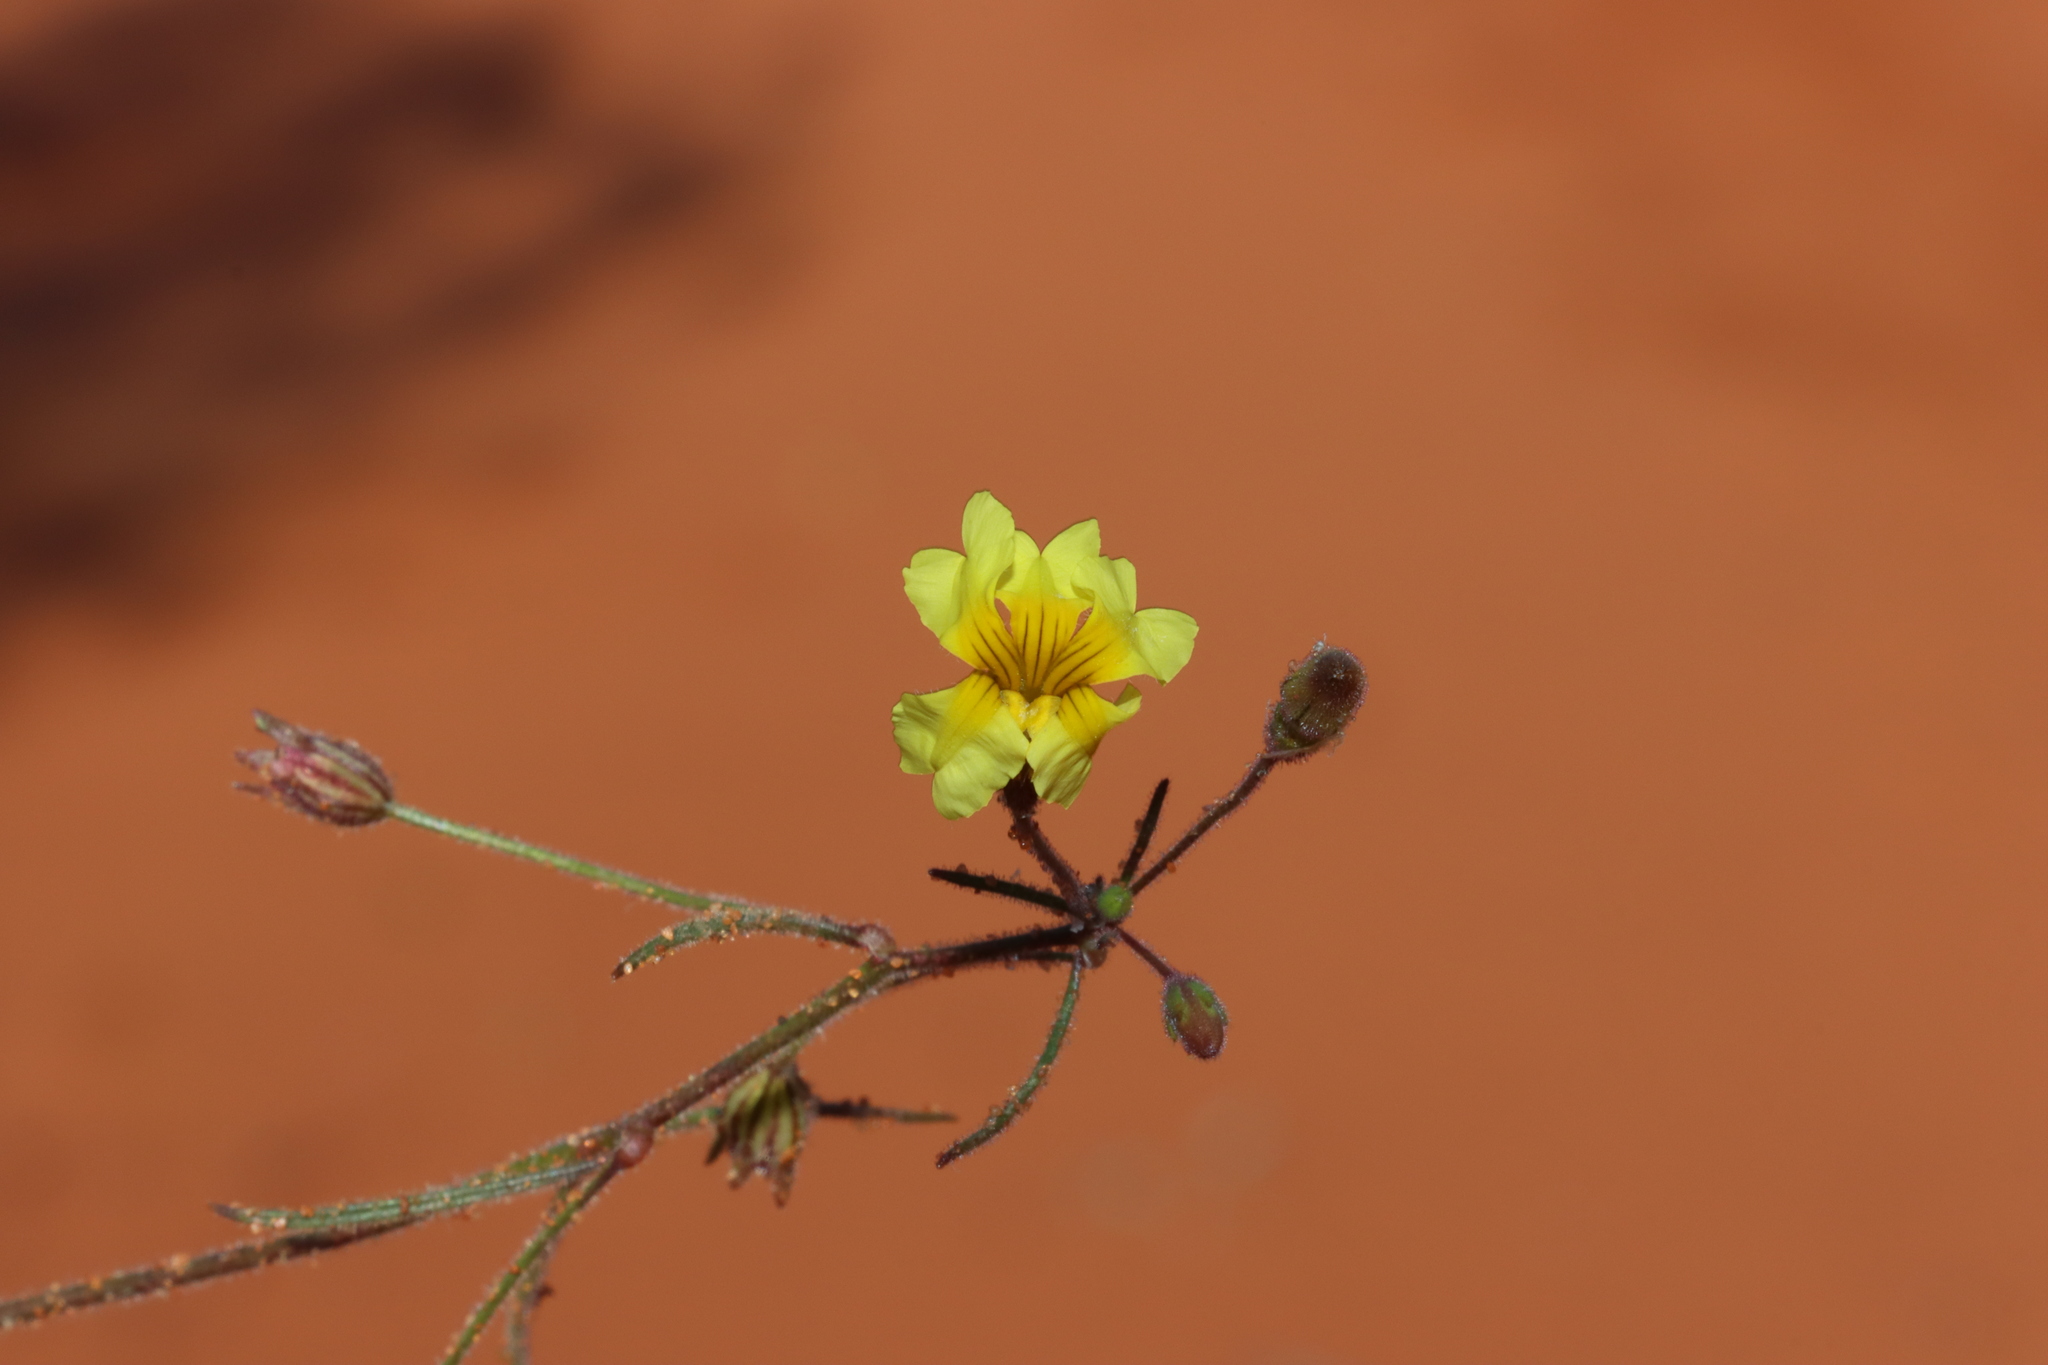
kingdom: Plantae
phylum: Tracheophyta
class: Magnoliopsida
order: Asterales
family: Goodeniaceae
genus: Goodenia
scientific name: Goodenia berardiana
